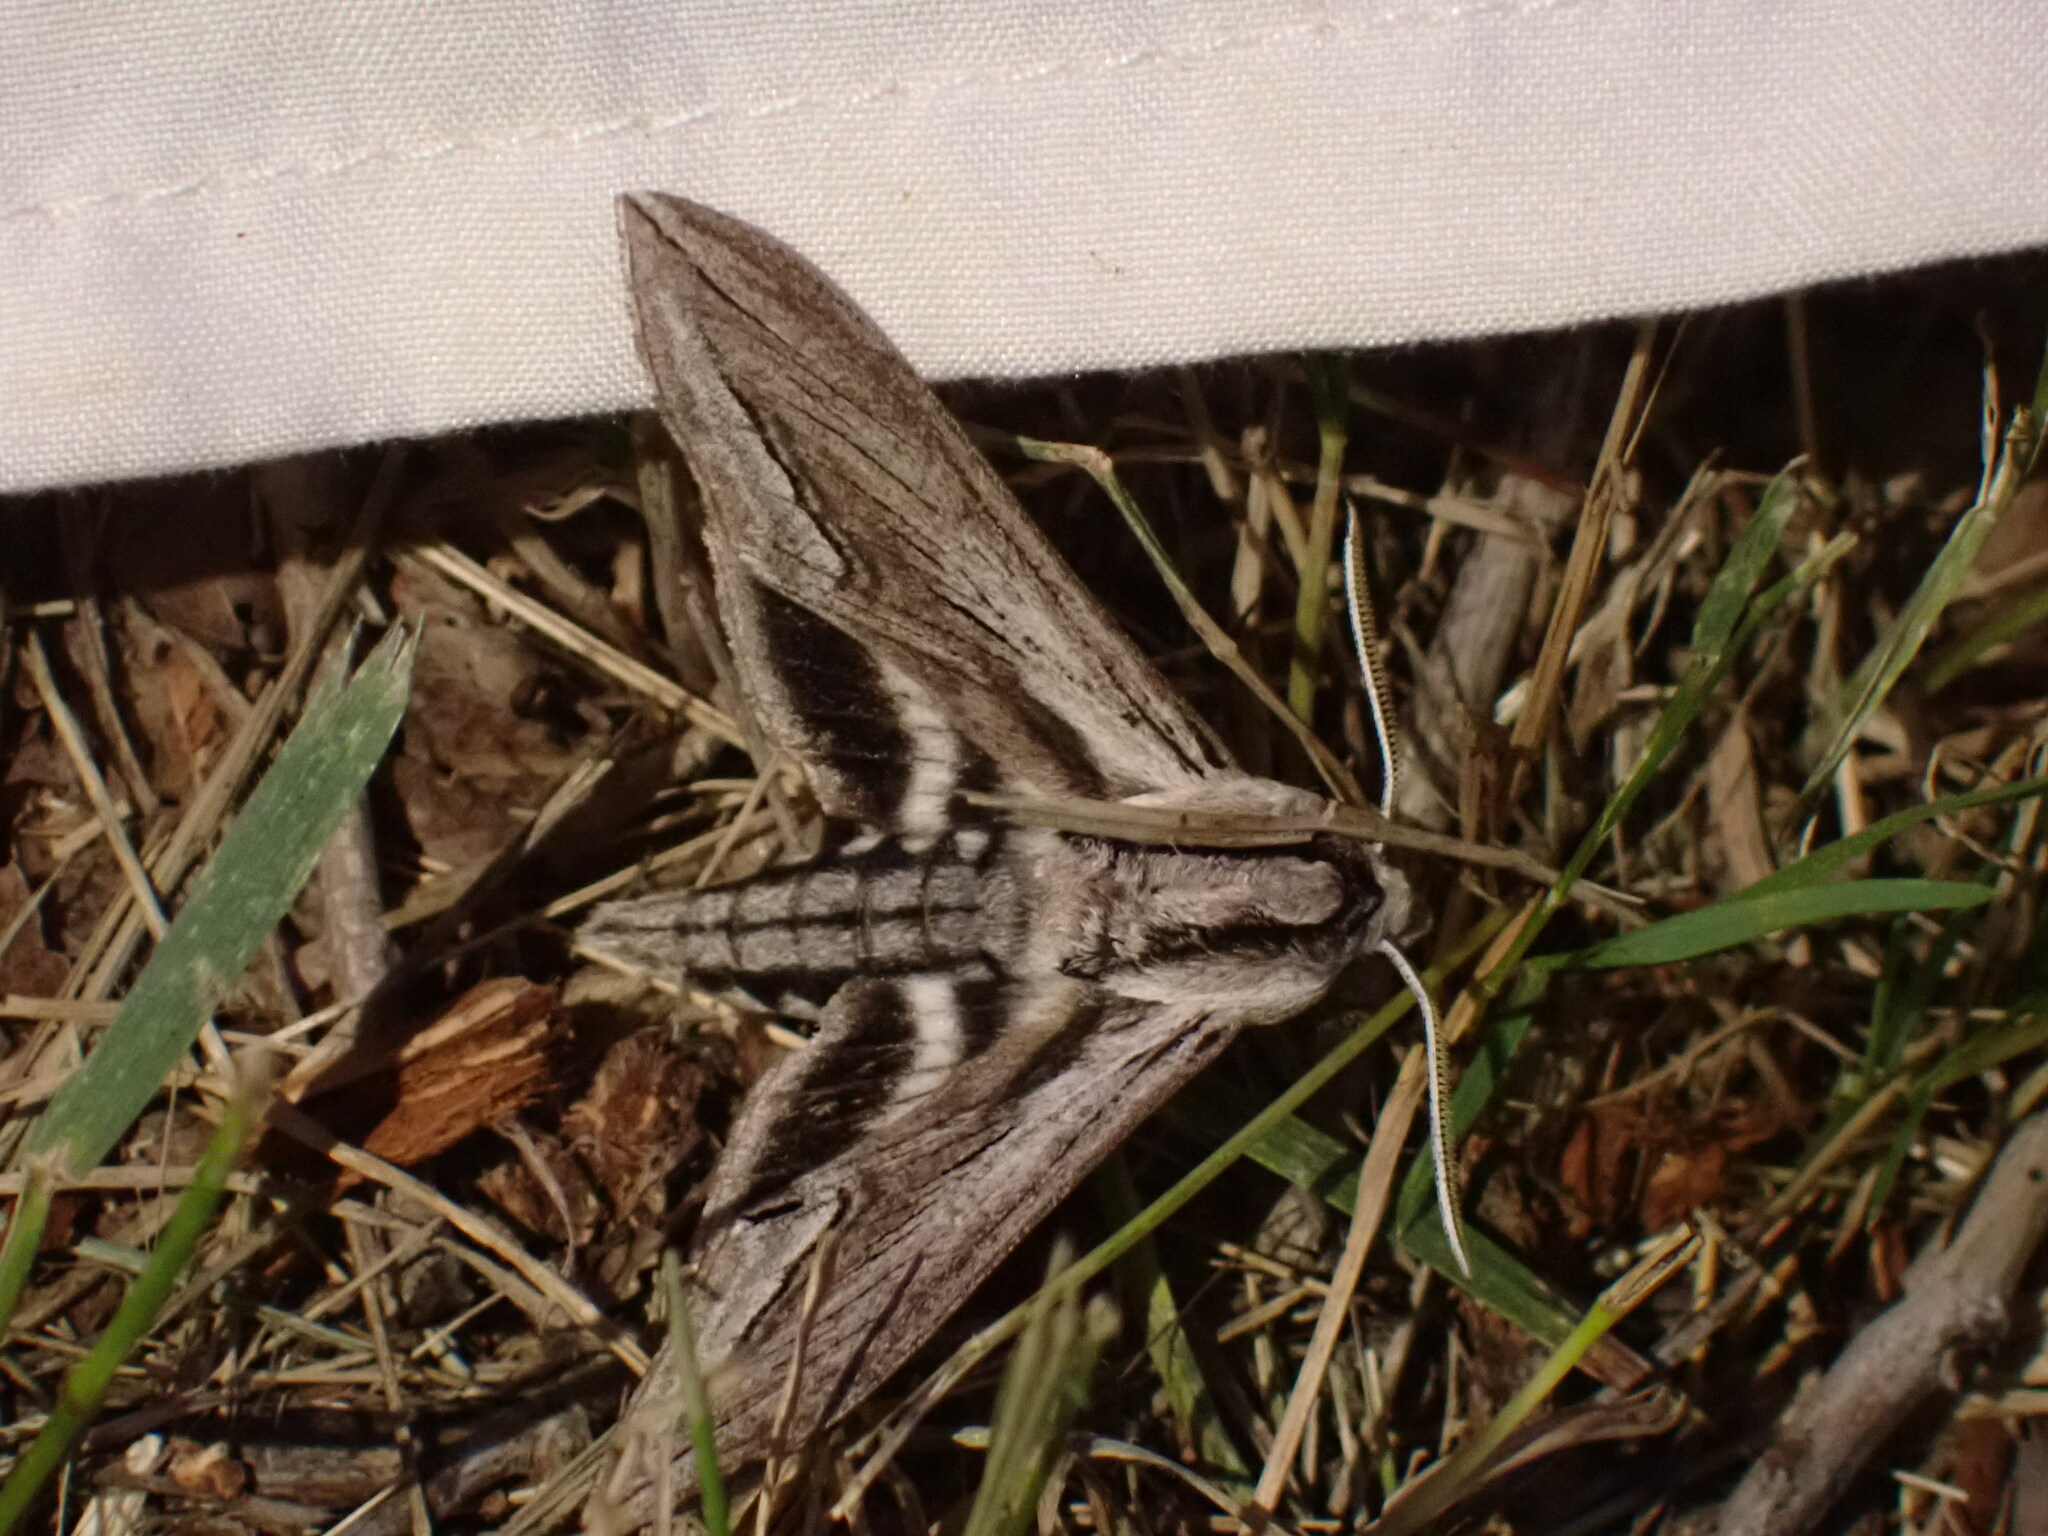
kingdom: Animalia
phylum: Arthropoda
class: Insecta
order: Lepidoptera
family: Sphingidae
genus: Sphinx
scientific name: Sphinx vashti
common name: Snowberry sphinx
